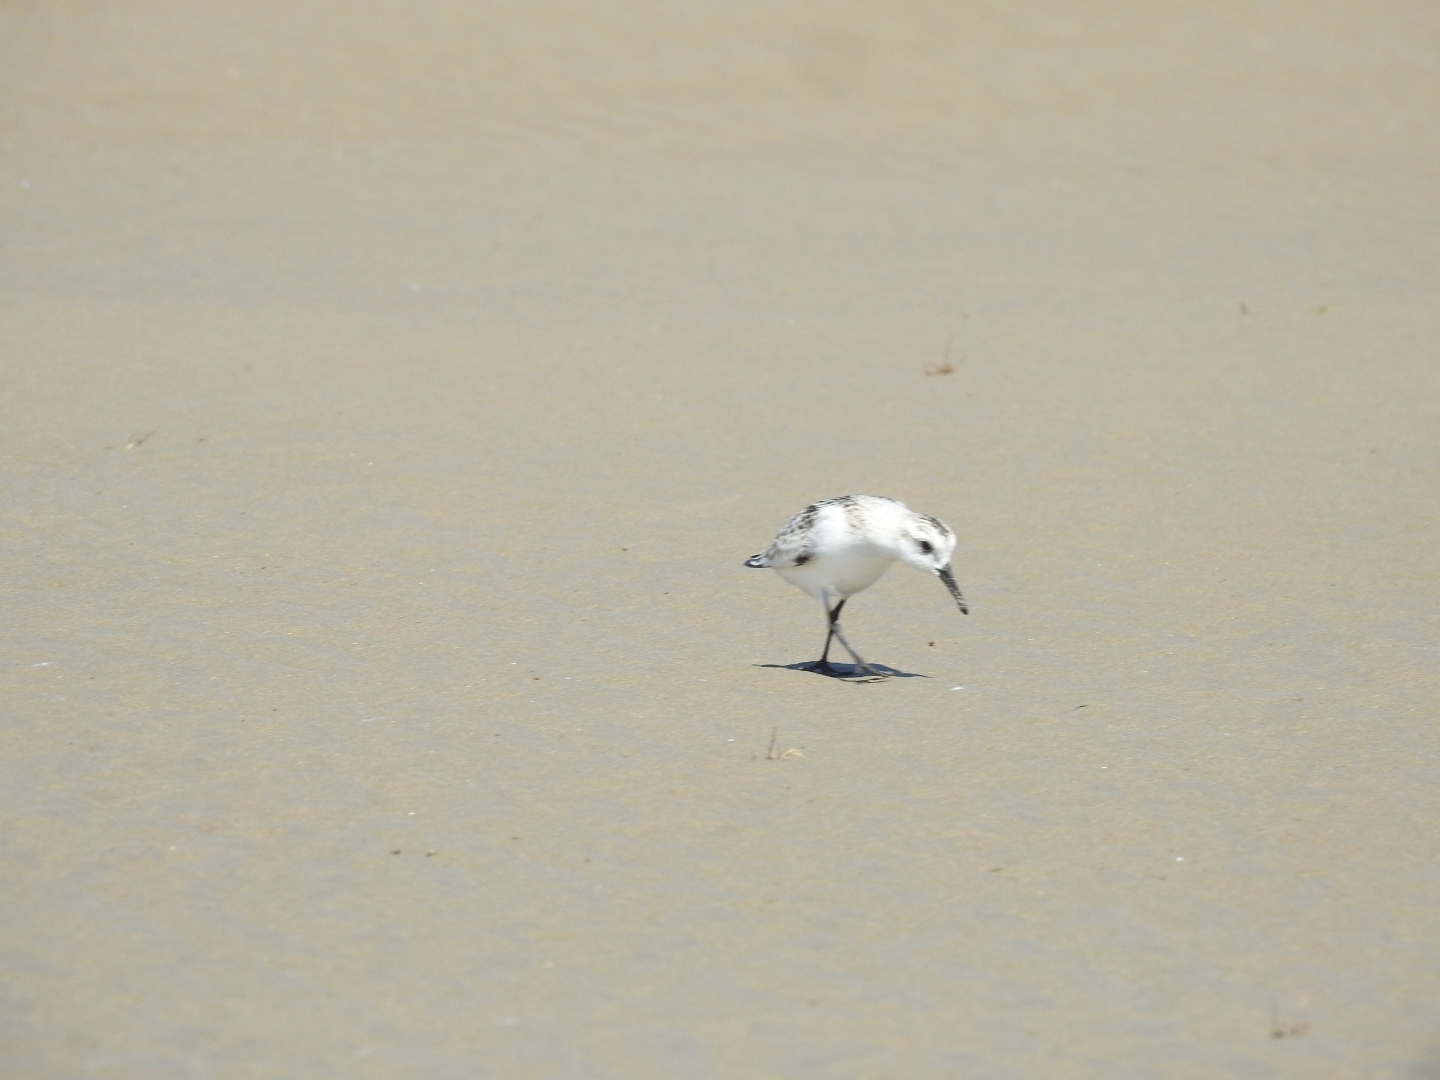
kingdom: Animalia
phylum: Chordata
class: Aves
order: Charadriiformes
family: Scolopacidae
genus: Calidris
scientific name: Calidris alba
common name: Sanderling
